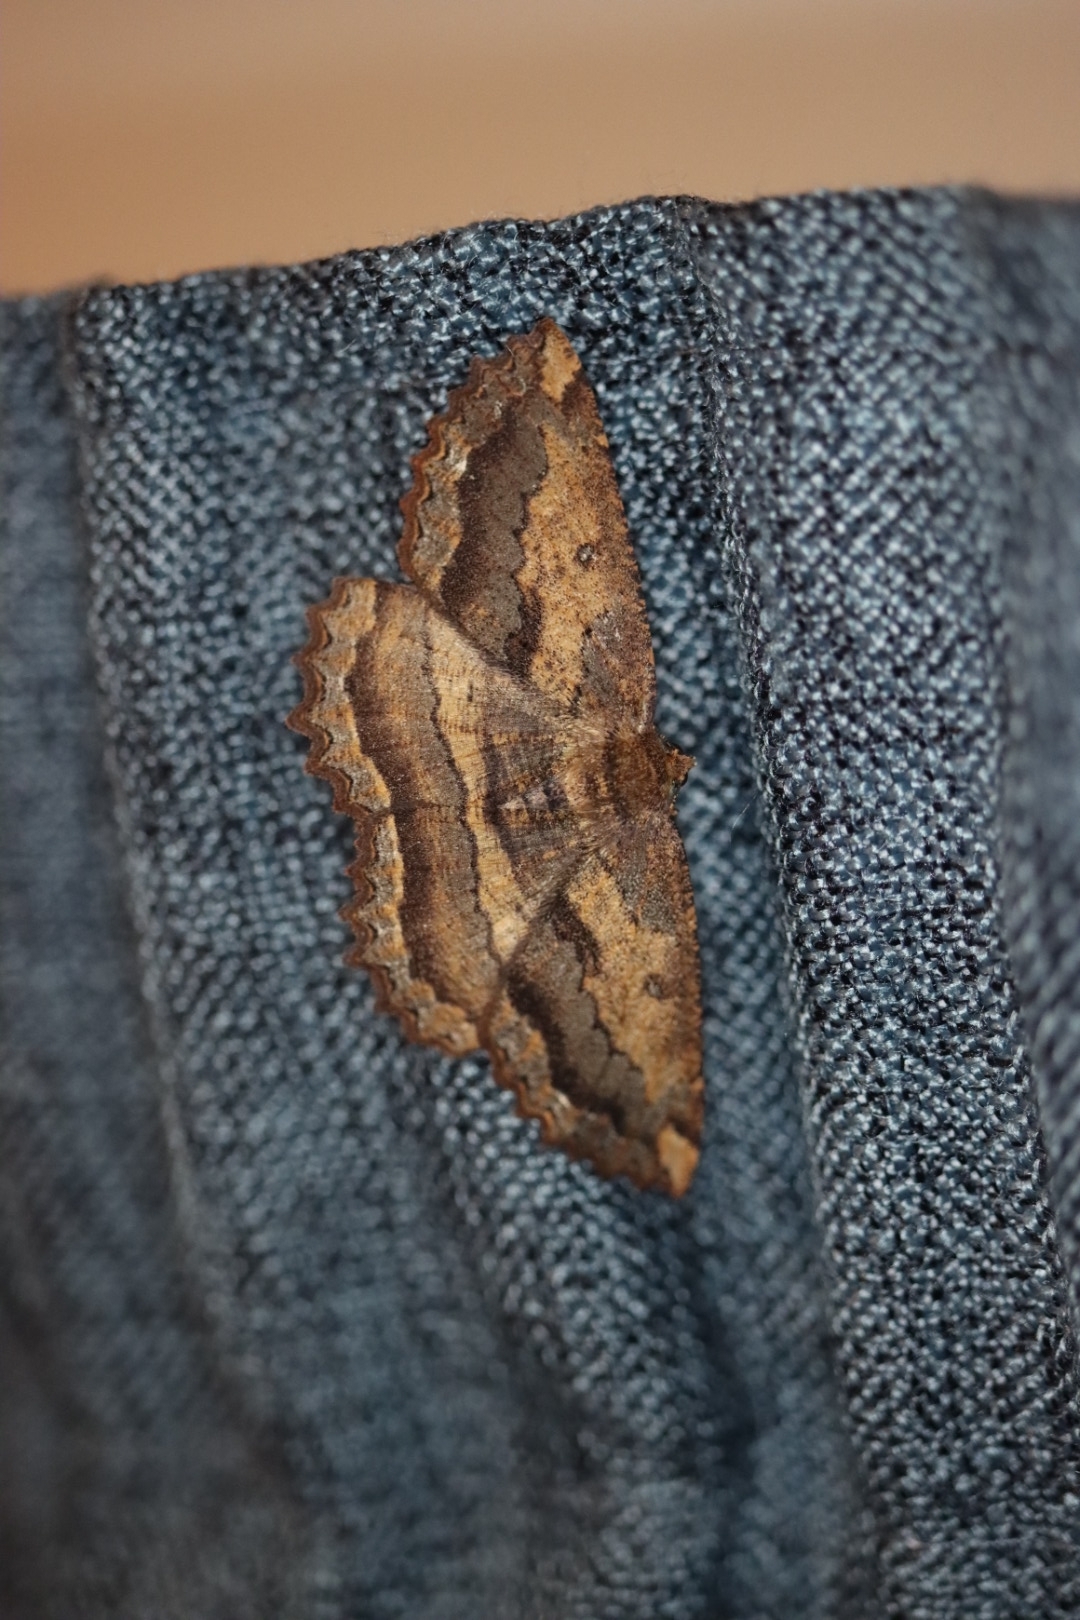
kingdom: Animalia
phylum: Arthropoda
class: Insecta
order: Lepidoptera
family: Geometridae
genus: Gellonia
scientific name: Gellonia dejectaria
